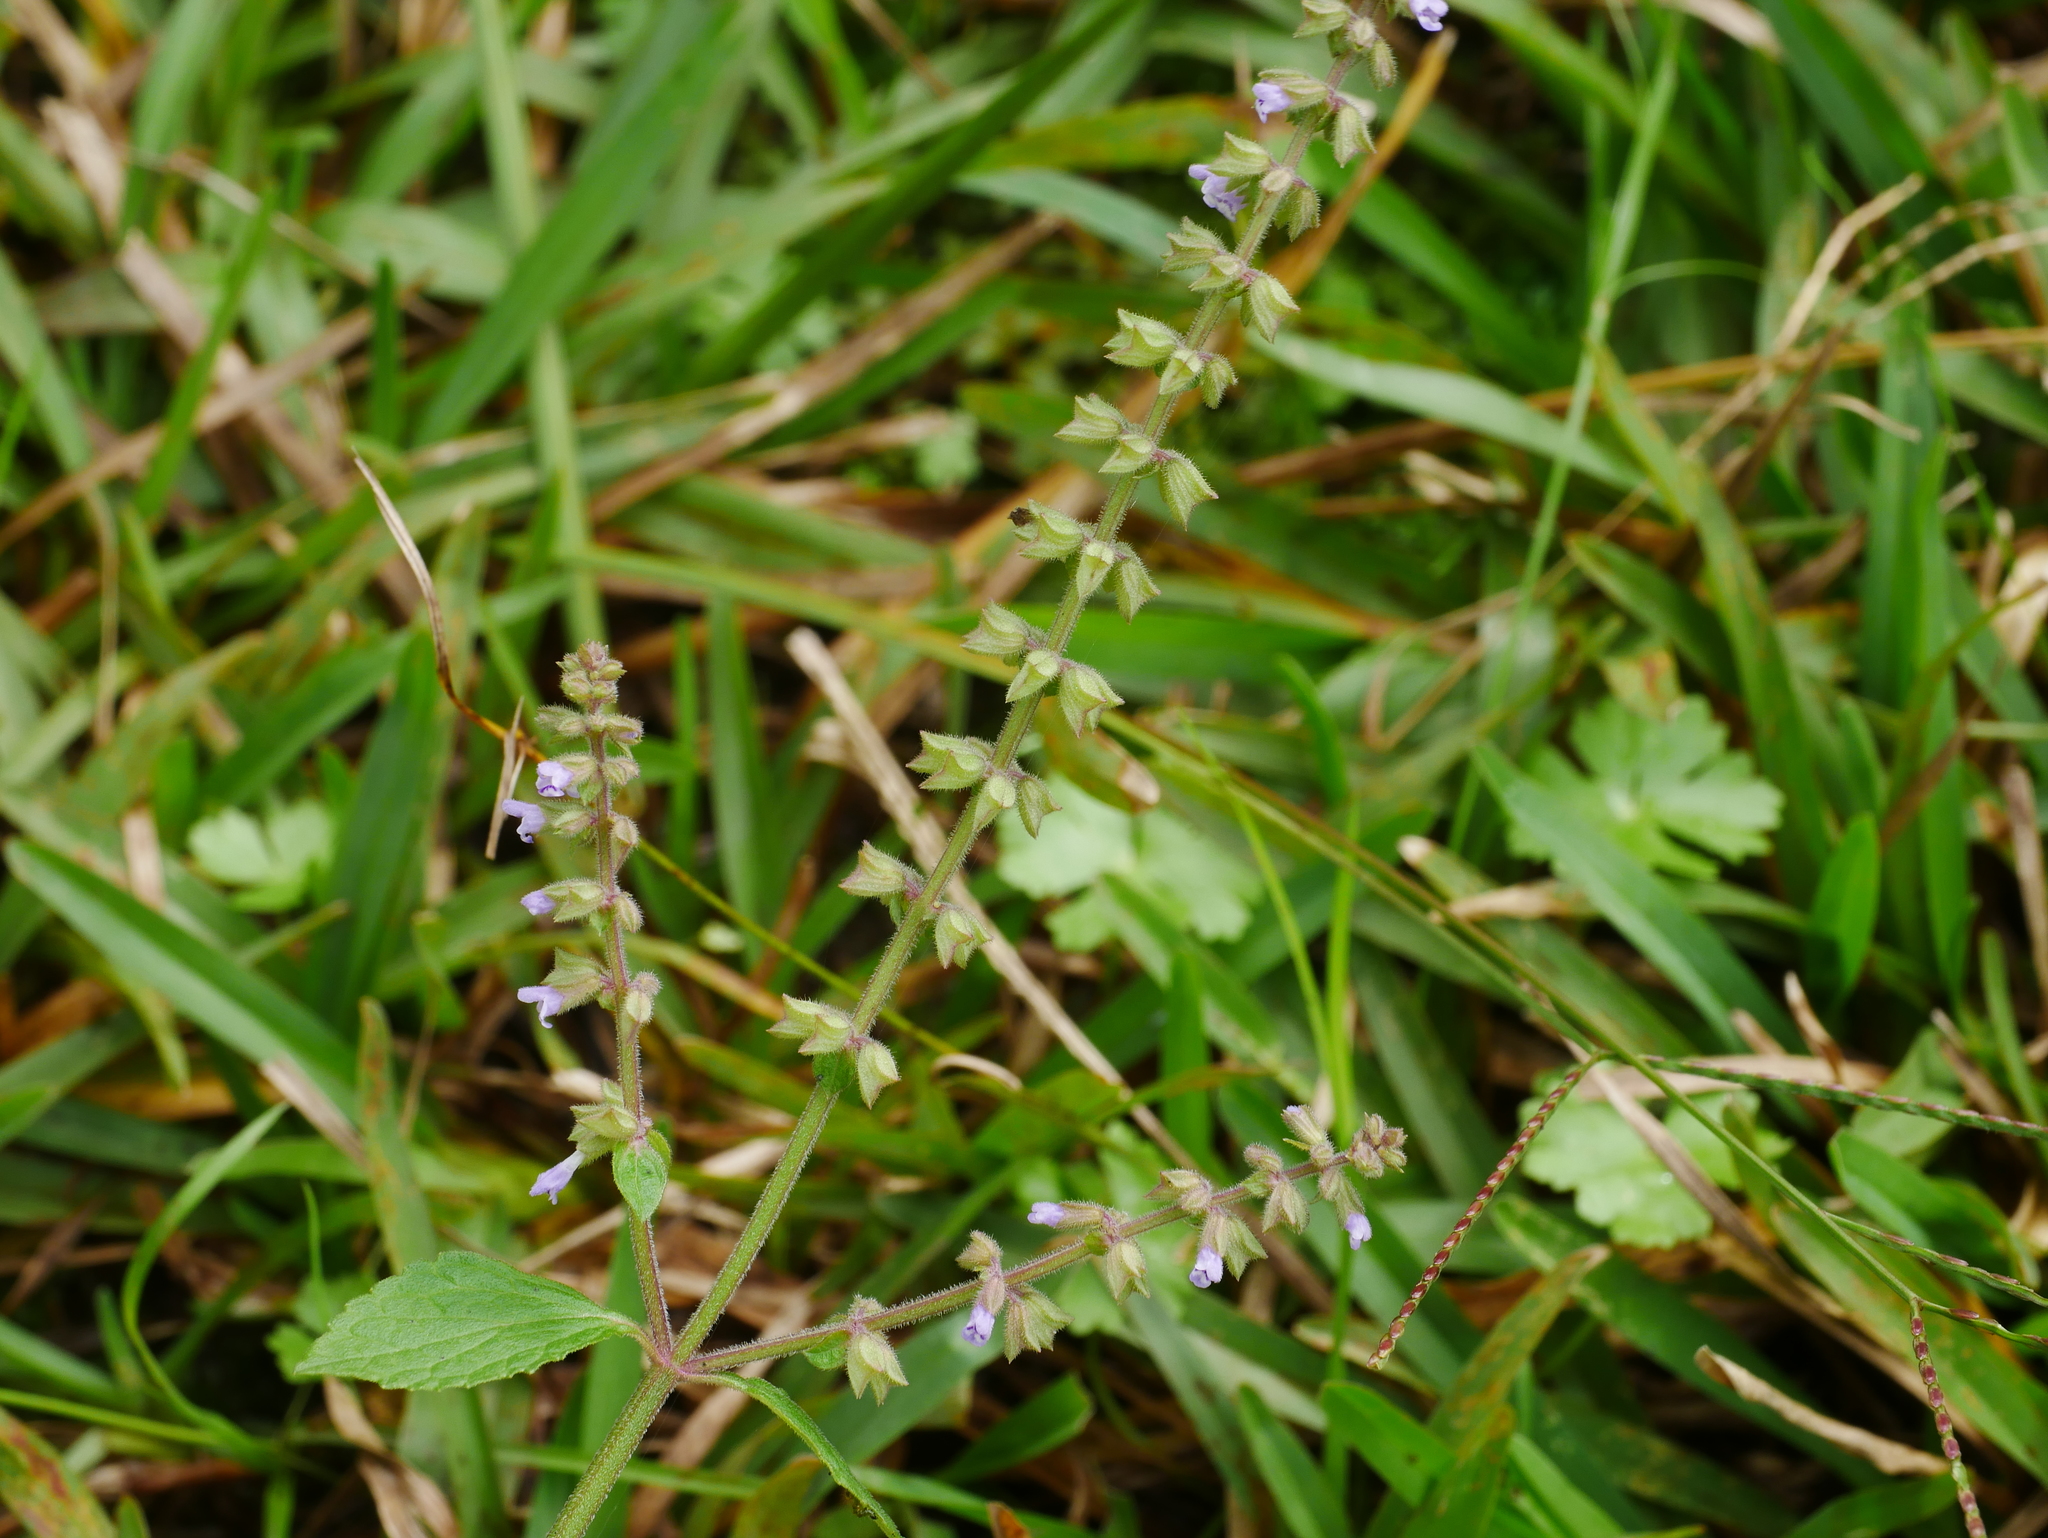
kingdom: Plantae
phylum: Tracheophyta
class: Magnoliopsida
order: Lamiales
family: Lamiaceae
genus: Salvia
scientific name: Salvia plebeia
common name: Australian sage
